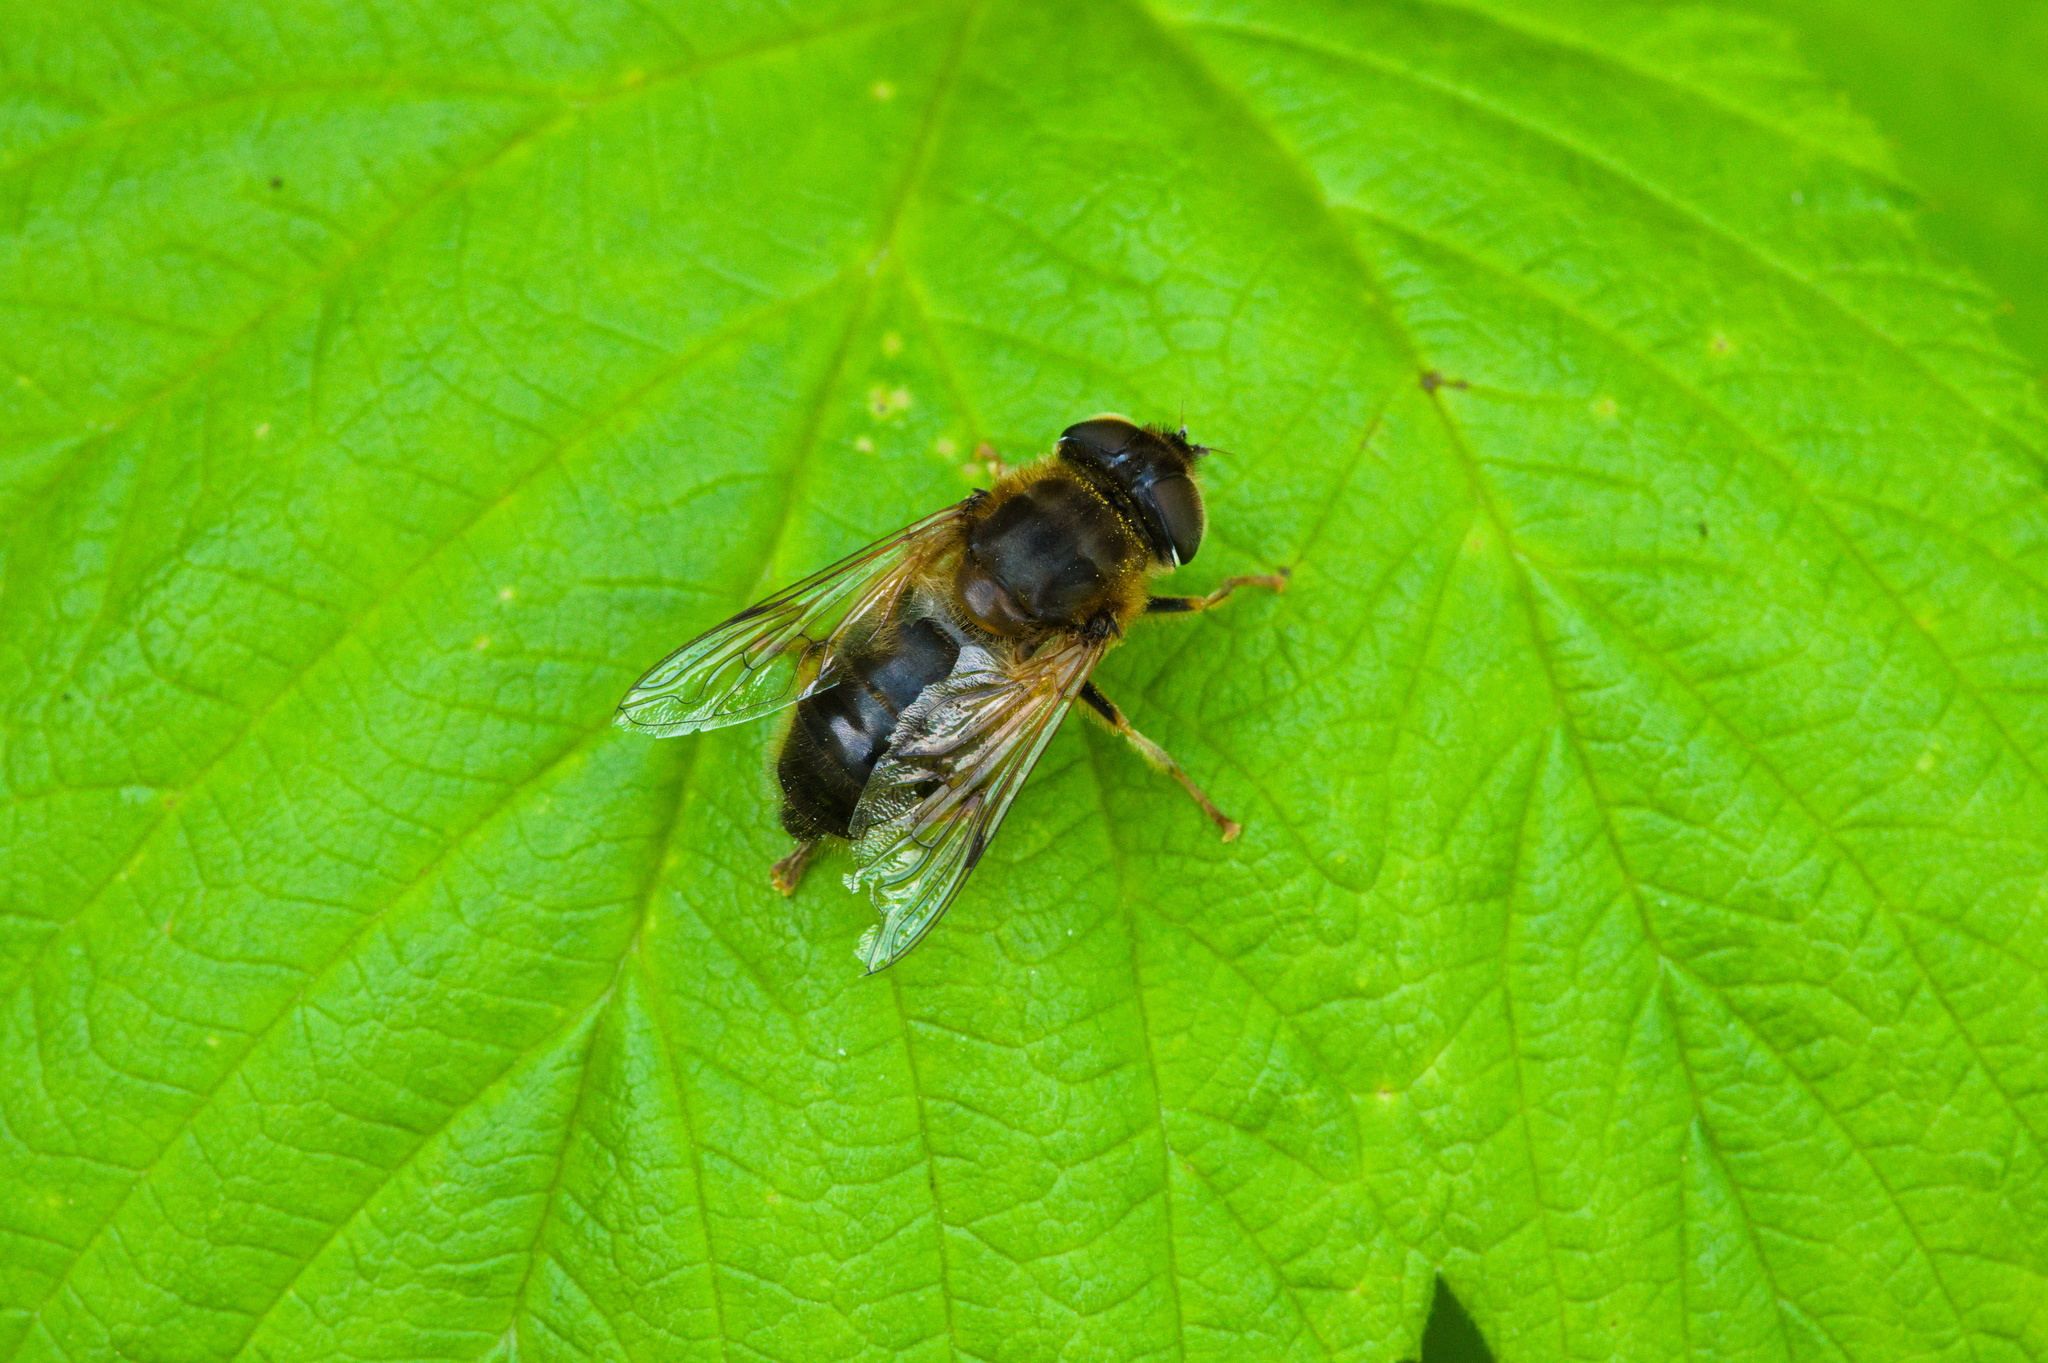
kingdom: Animalia
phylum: Arthropoda
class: Insecta
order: Diptera
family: Syrphidae
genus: Eristalis
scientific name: Eristalis pertinax
